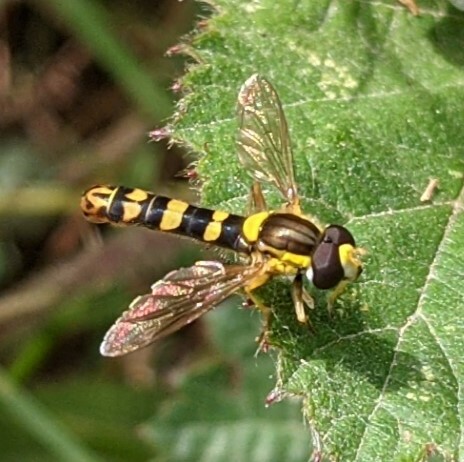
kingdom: Animalia
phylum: Arthropoda
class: Insecta
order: Diptera
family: Syrphidae
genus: Sphaerophoria
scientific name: Sphaerophoria scripta
